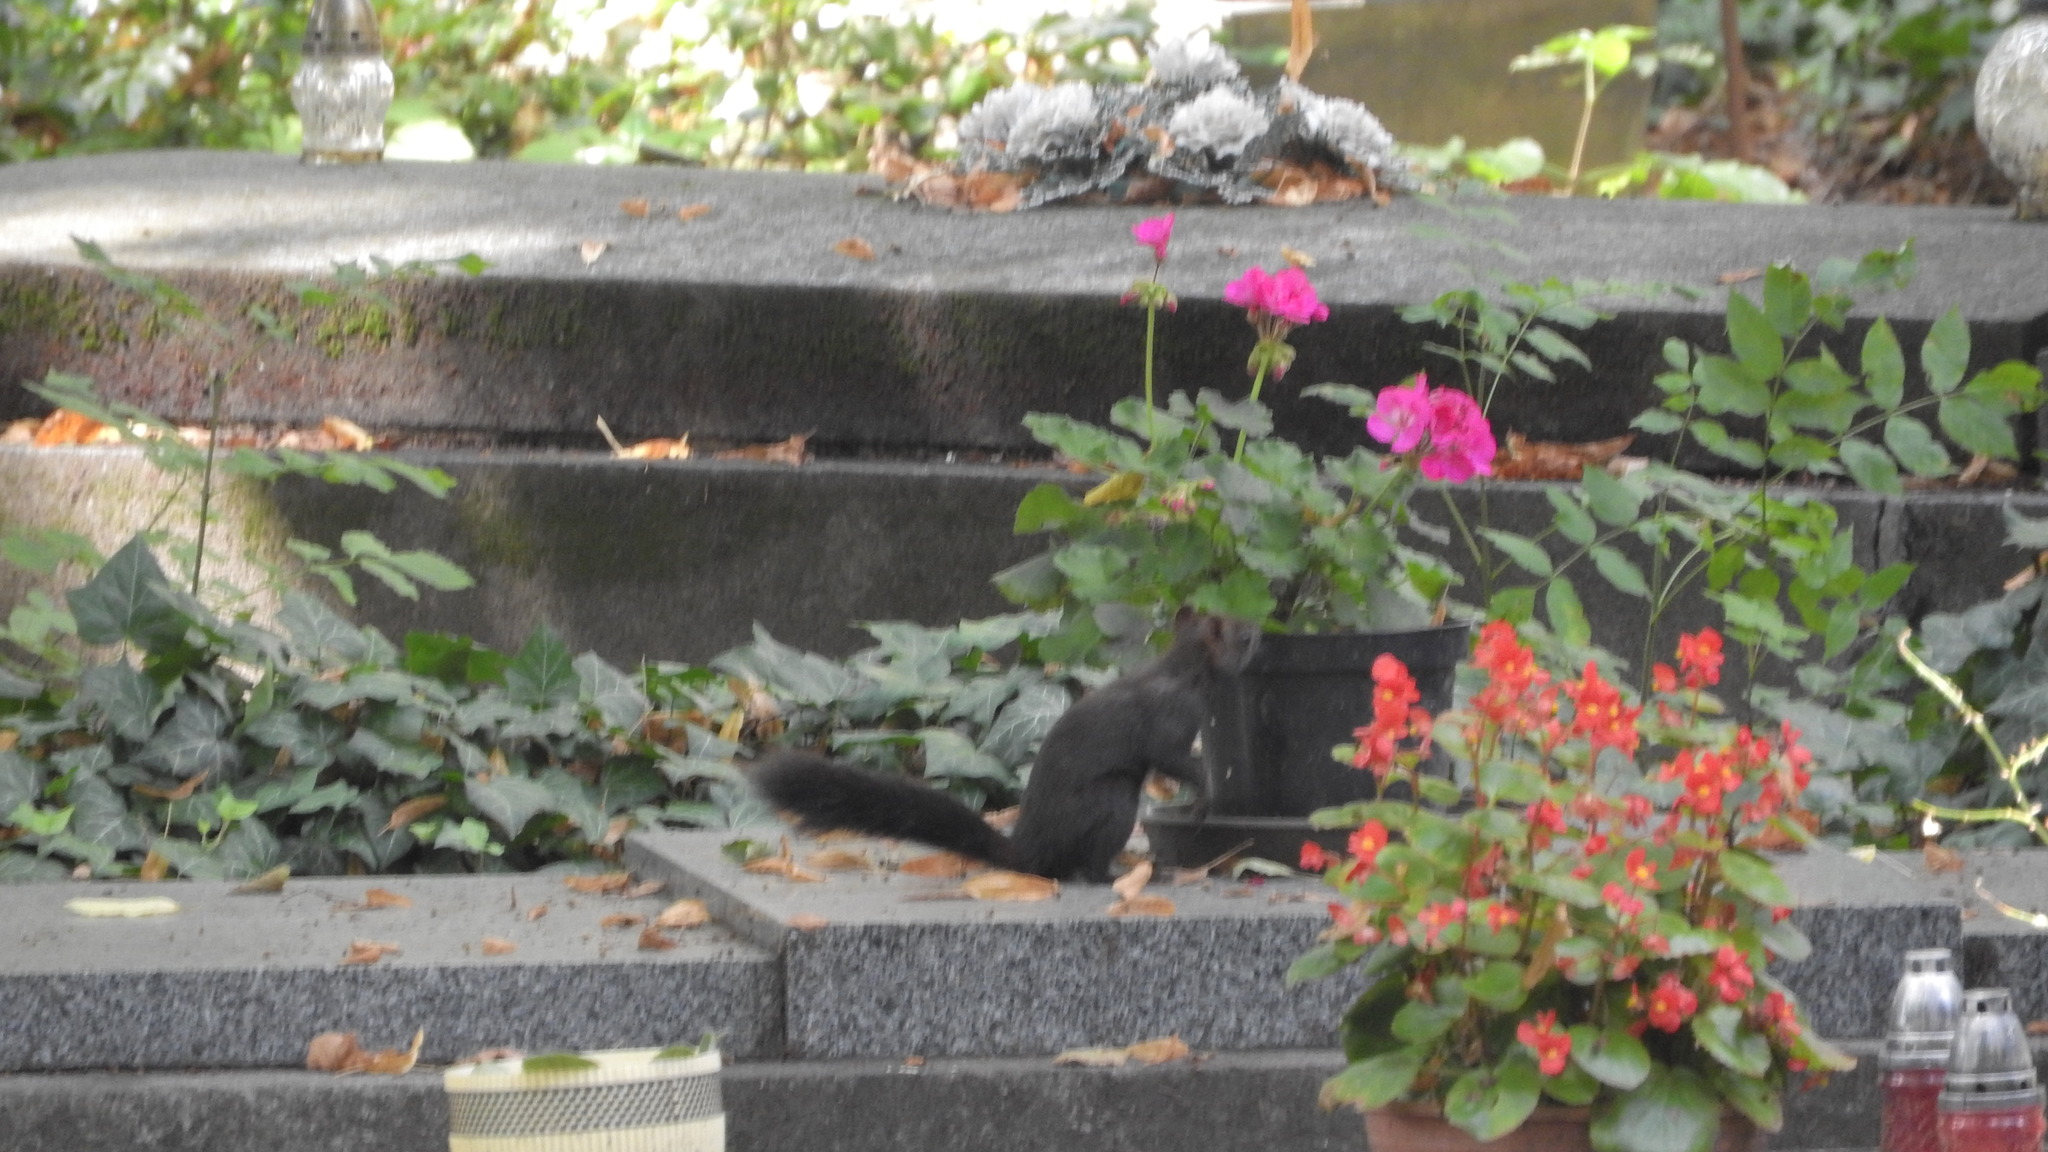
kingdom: Animalia
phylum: Chordata
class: Mammalia
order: Rodentia
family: Sciuridae
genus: Sciurus
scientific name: Sciurus vulgaris
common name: Eurasian red squirrel
